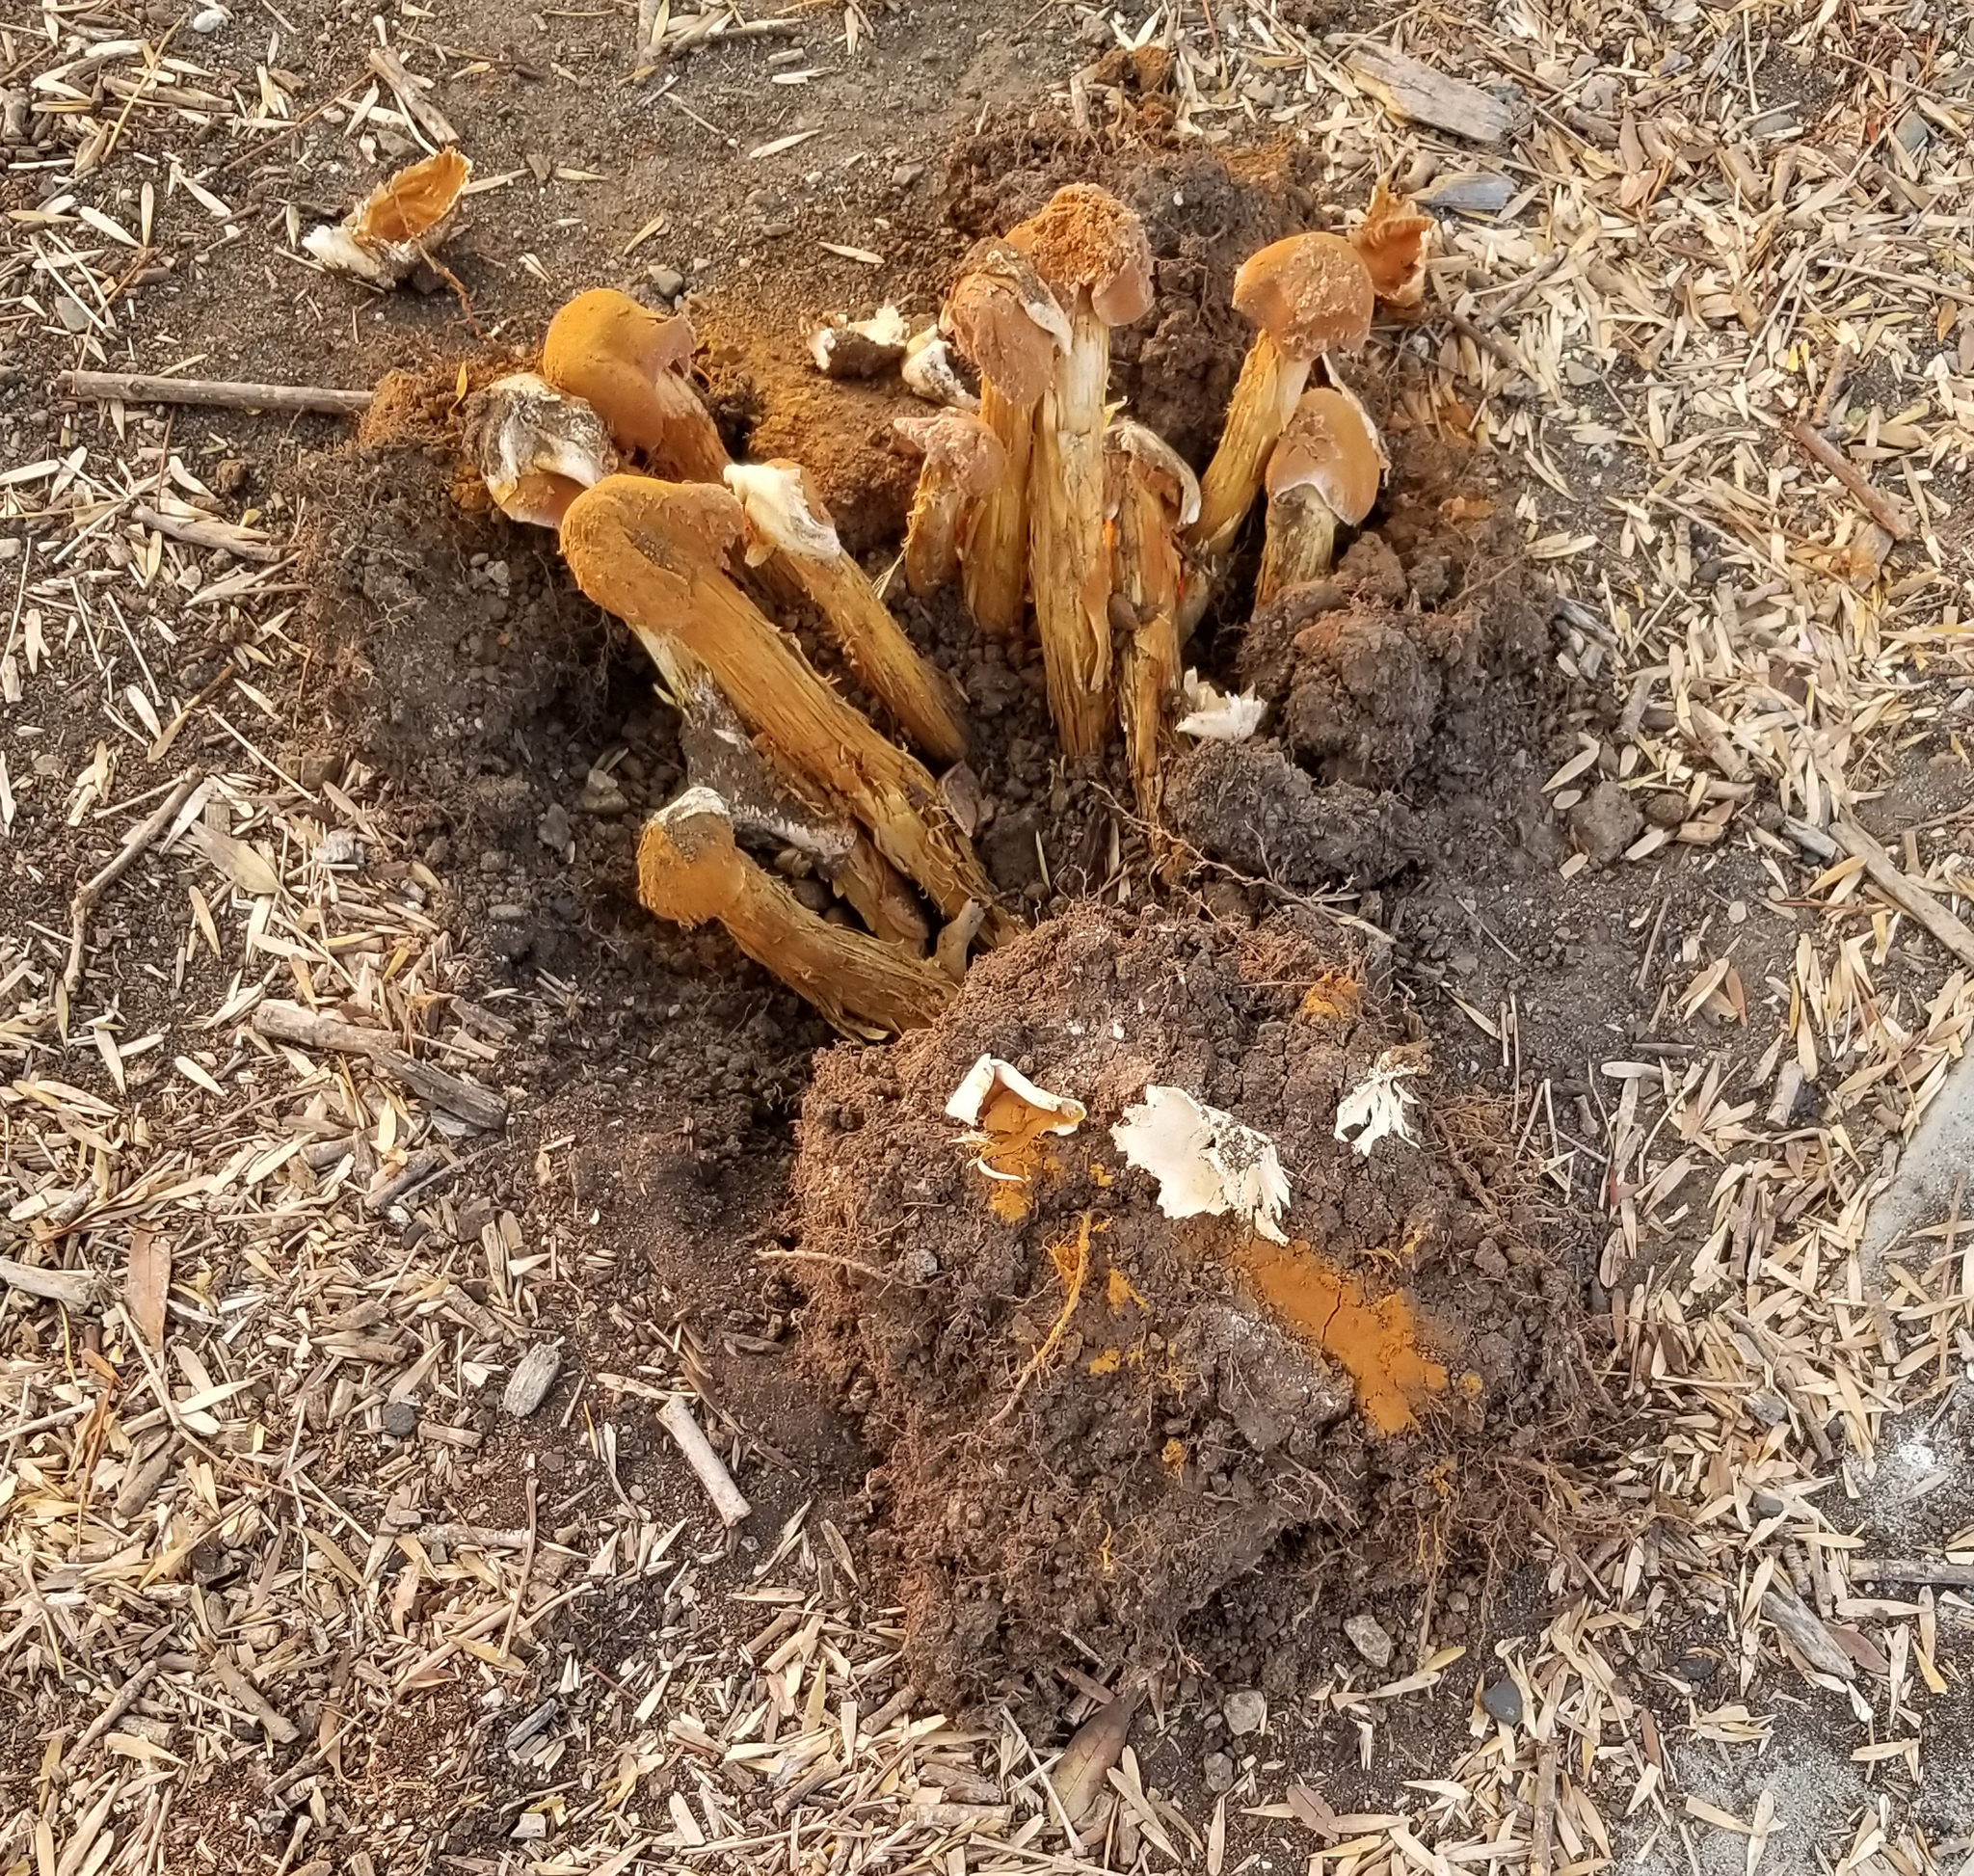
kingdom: Fungi
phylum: Basidiomycota
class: Agaricomycetes
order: Agaricales
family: Agaricaceae
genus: Battarrea
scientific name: Battarrea phalloides
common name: Sandy stiltball
